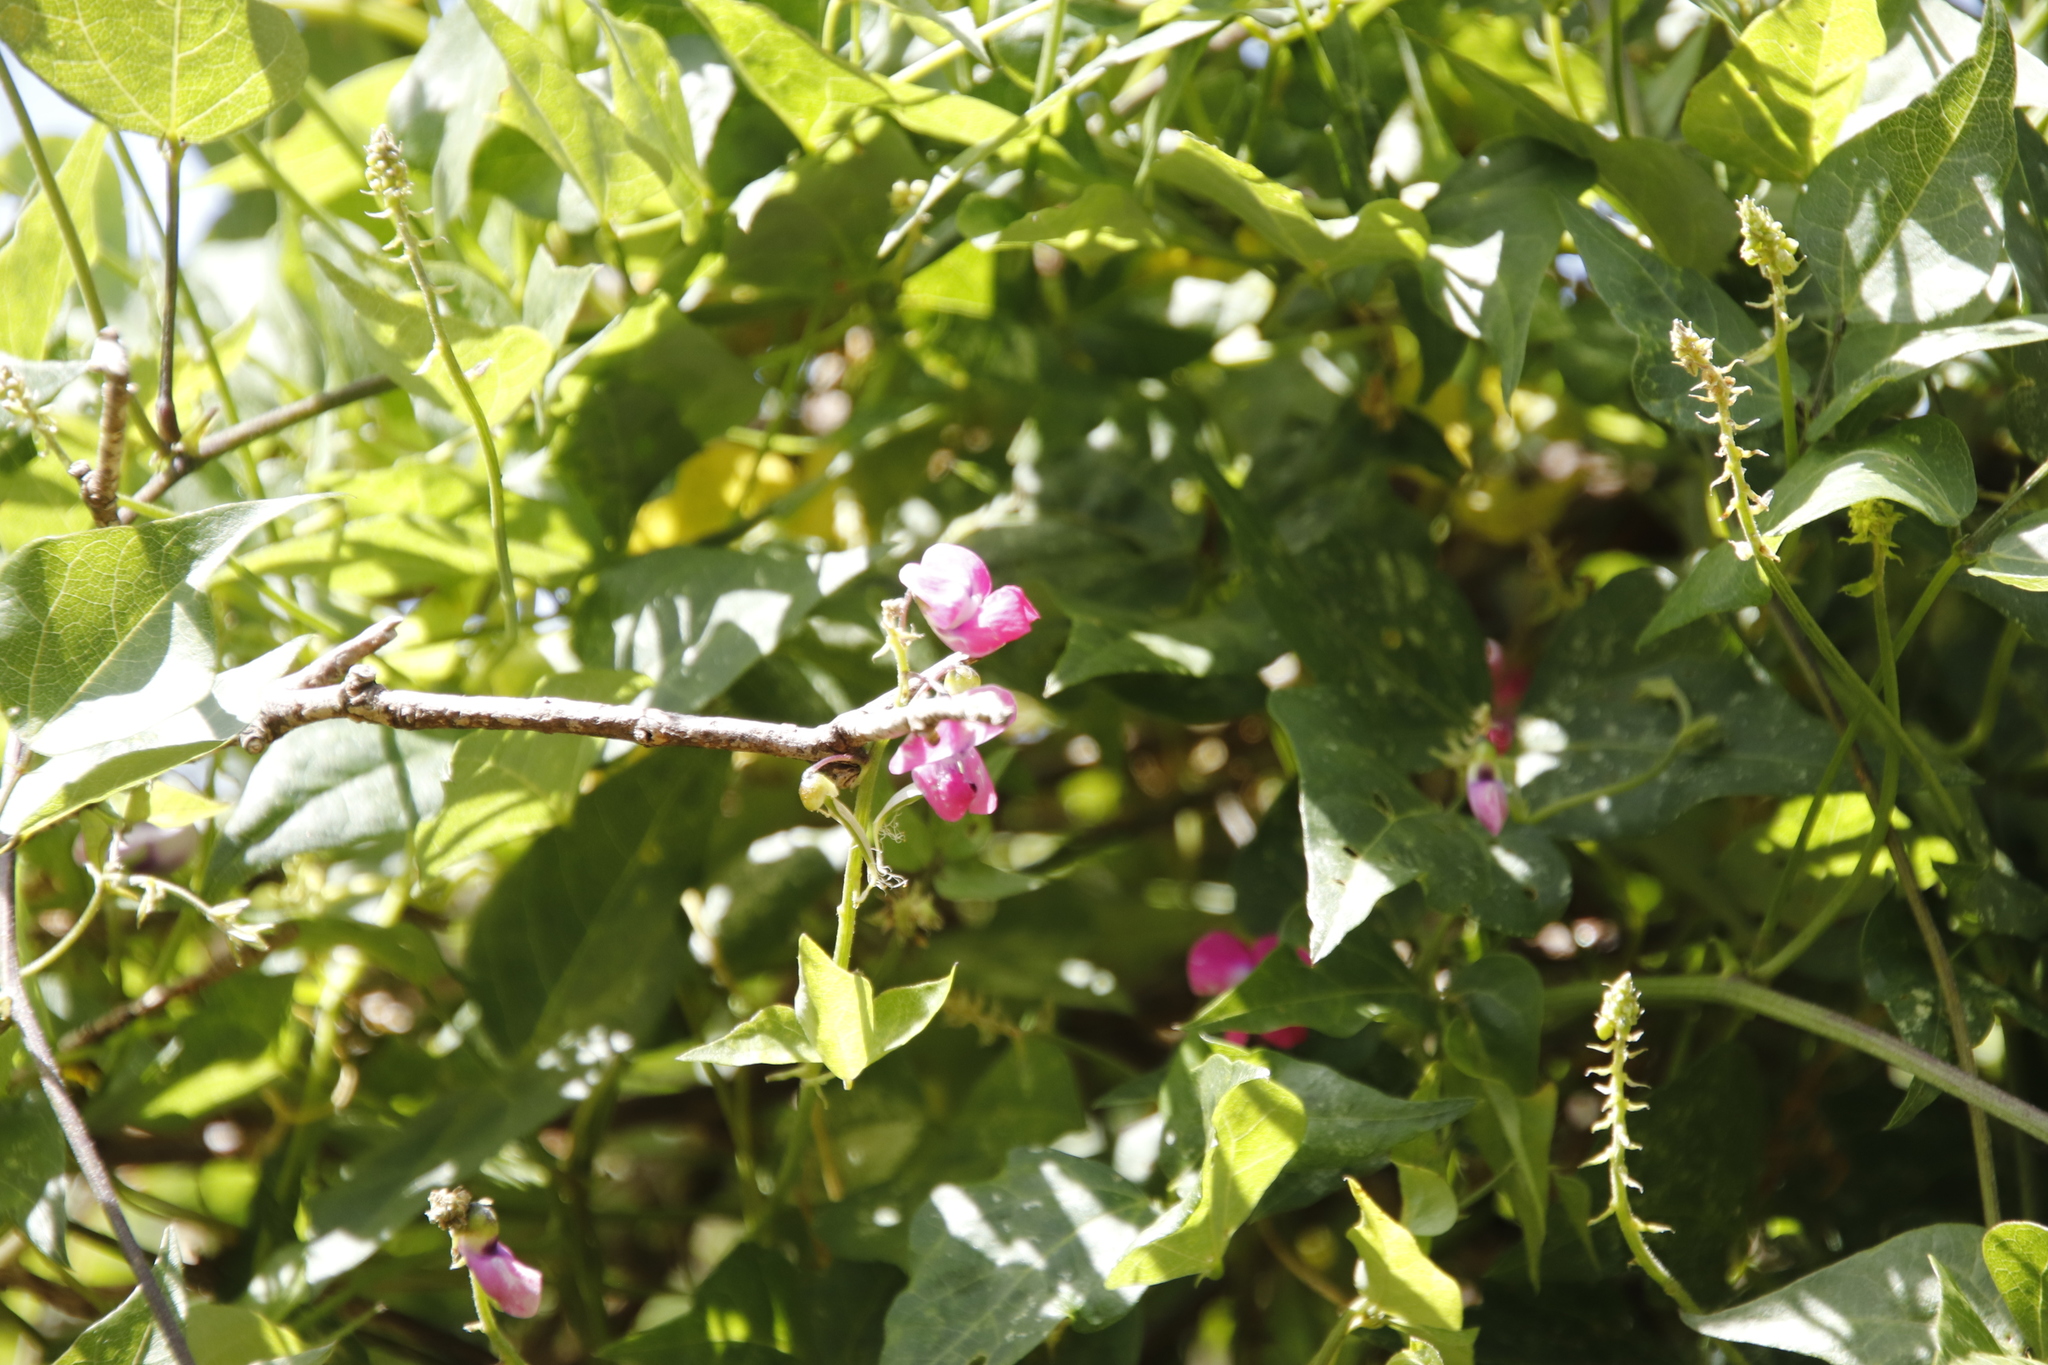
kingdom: Plantae
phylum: Tracheophyta
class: Magnoliopsida
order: Fabales
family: Fabaceae
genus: Dipogon
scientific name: Dipogon lignosus
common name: Okie bean
